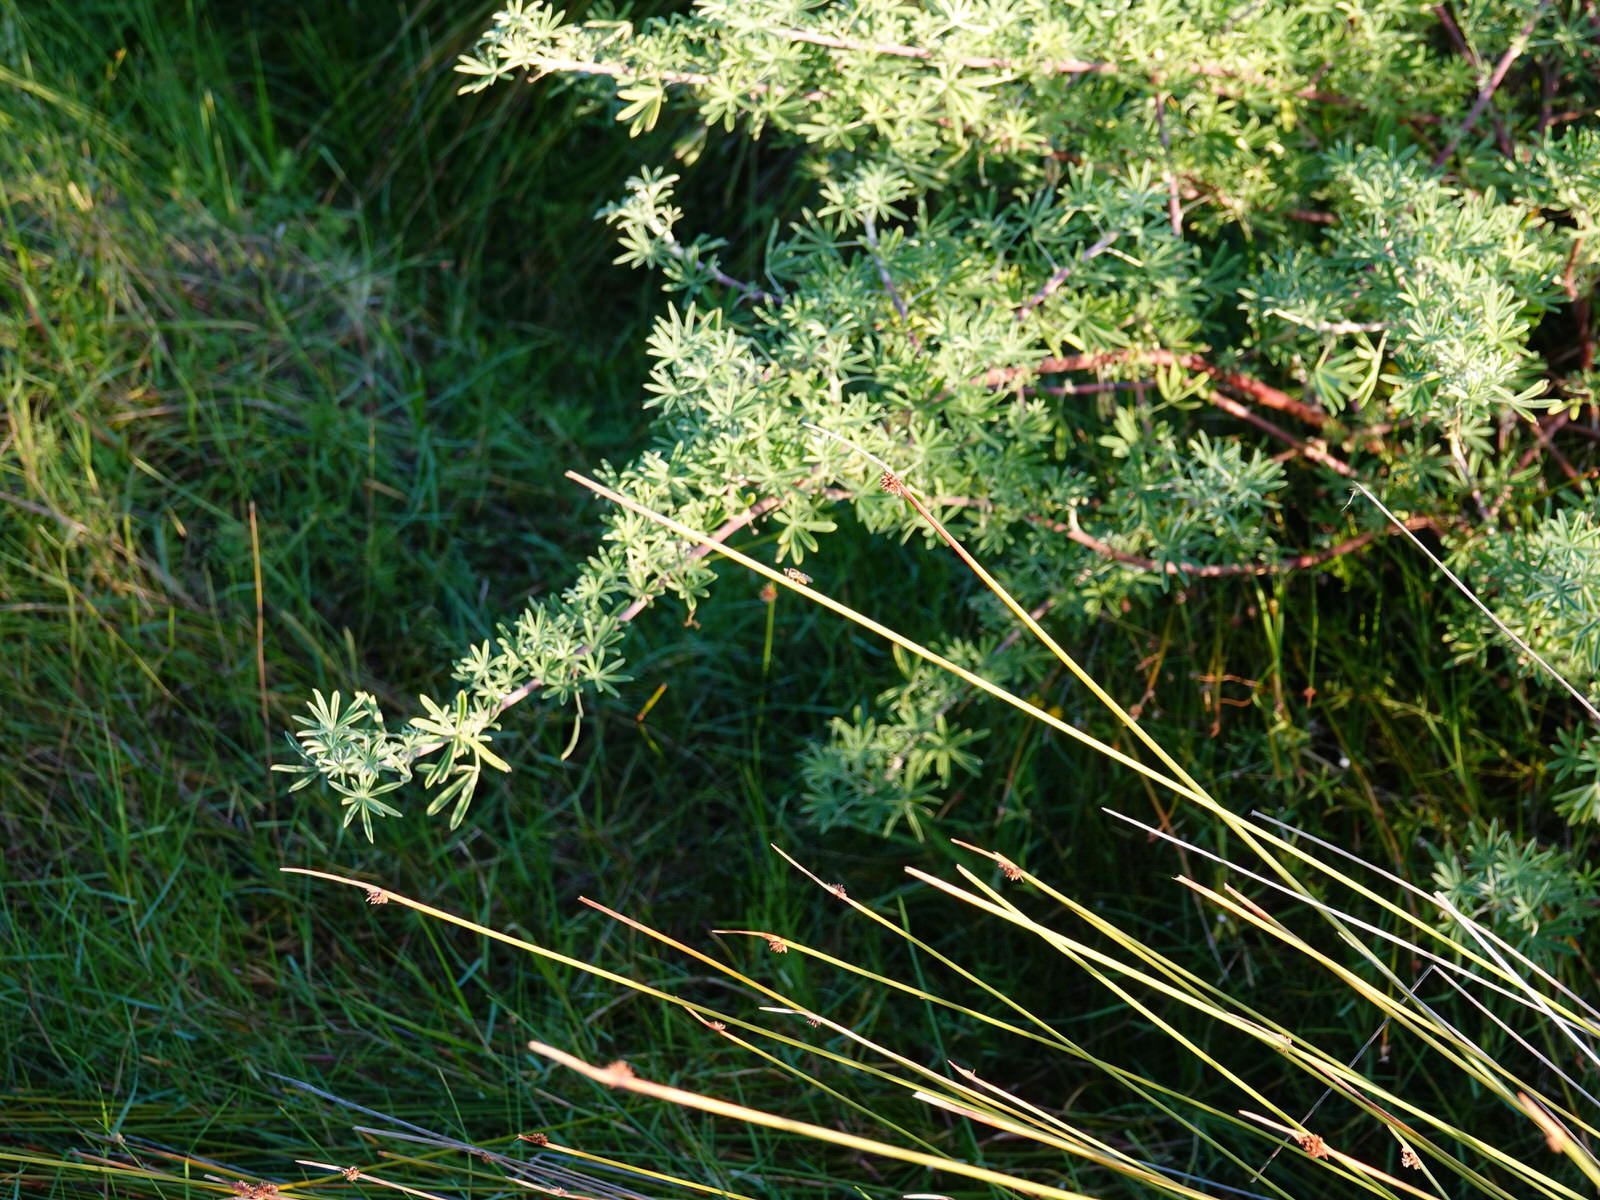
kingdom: Animalia
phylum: Arthropoda
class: Insecta
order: Diptera
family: Syrphidae
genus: Simosyrphus
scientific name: Simosyrphus grandicornis
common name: Hoverfly
